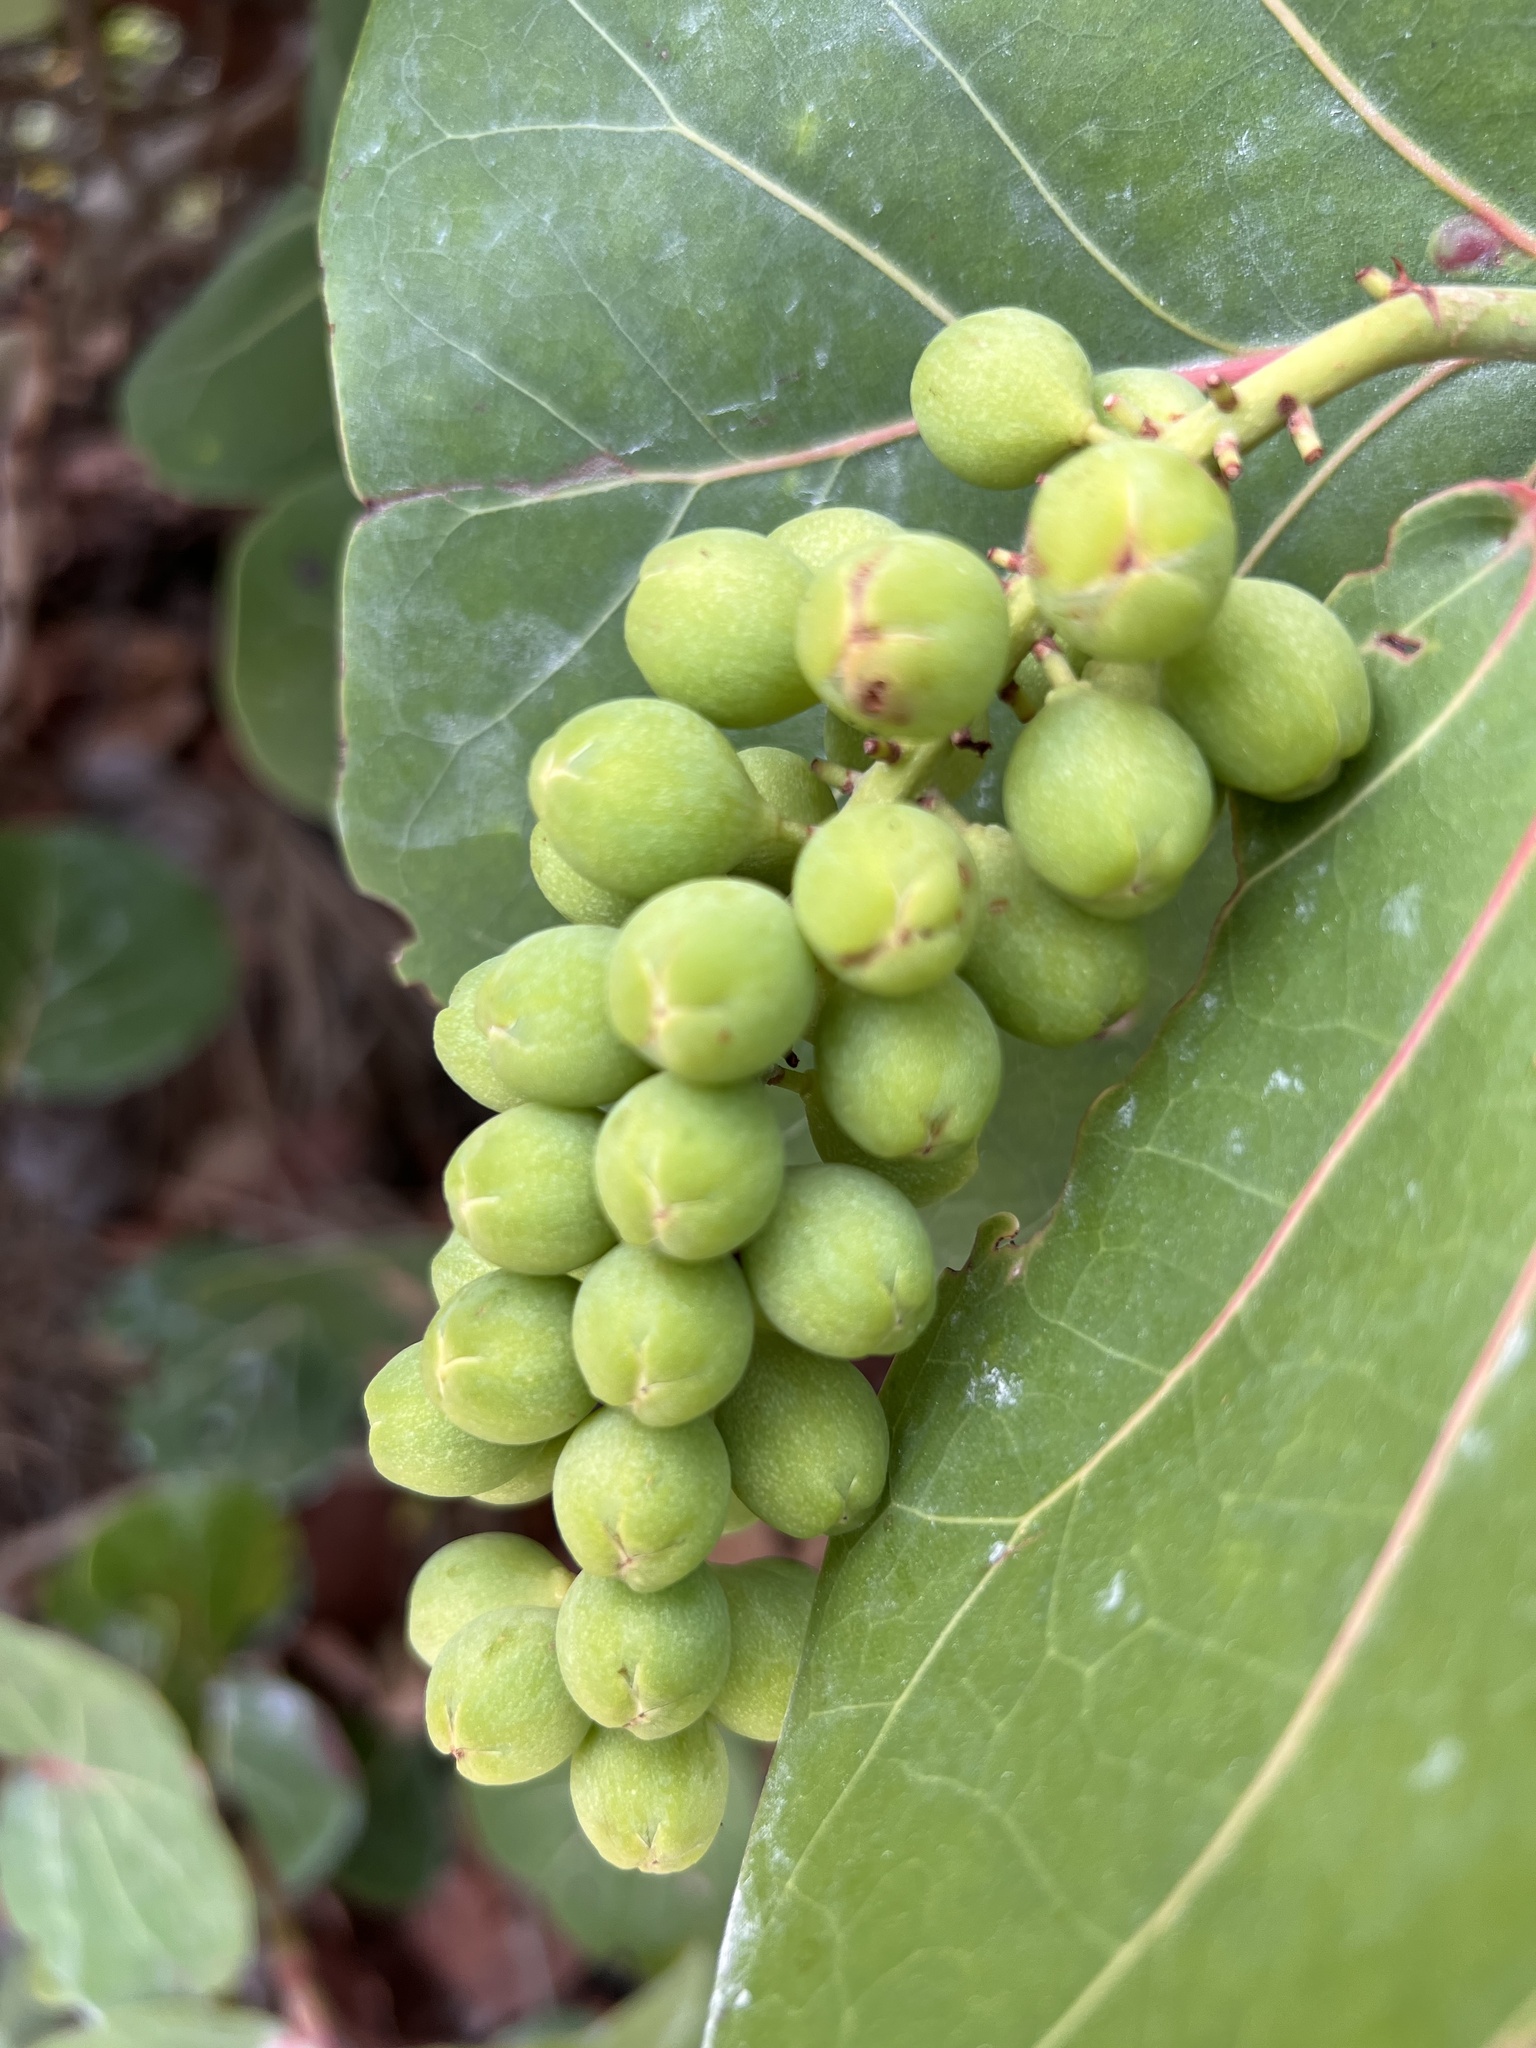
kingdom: Plantae
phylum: Tracheophyta
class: Magnoliopsida
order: Caryophyllales
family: Polygonaceae
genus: Coccoloba
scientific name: Coccoloba uvifera
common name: Seagrape
